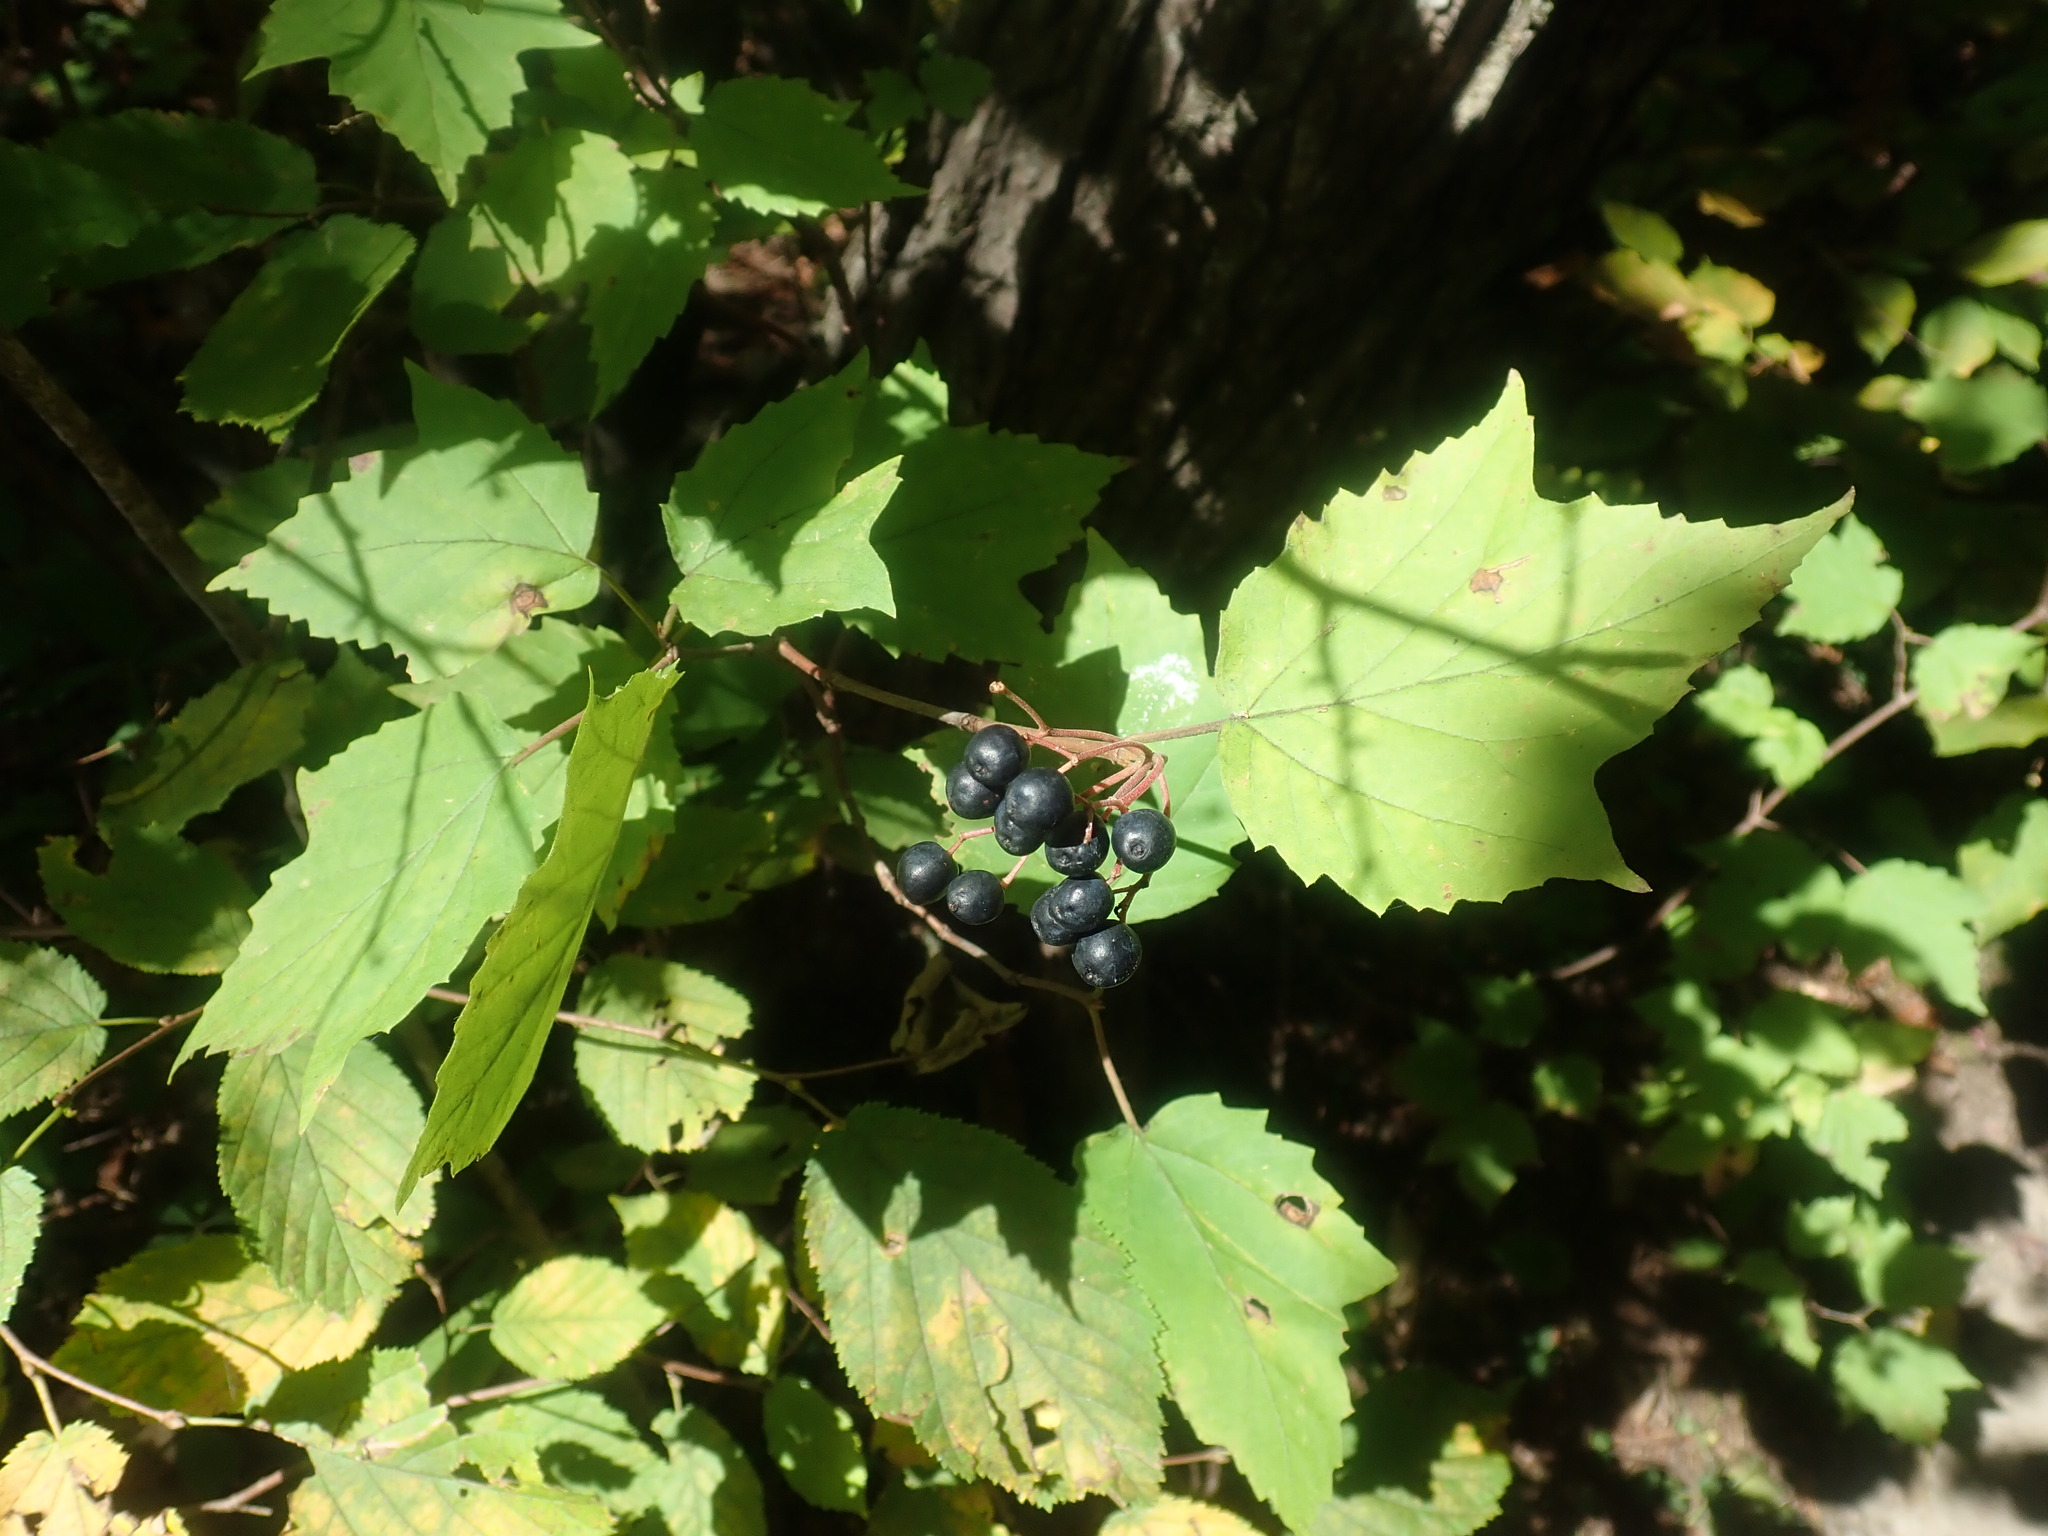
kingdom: Plantae
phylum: Tracheophyta
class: Magnoliopsida
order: Dipsacales
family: Viburnaceae
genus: Viburnum
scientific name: Viburnum acerifolium
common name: Dockmackie
